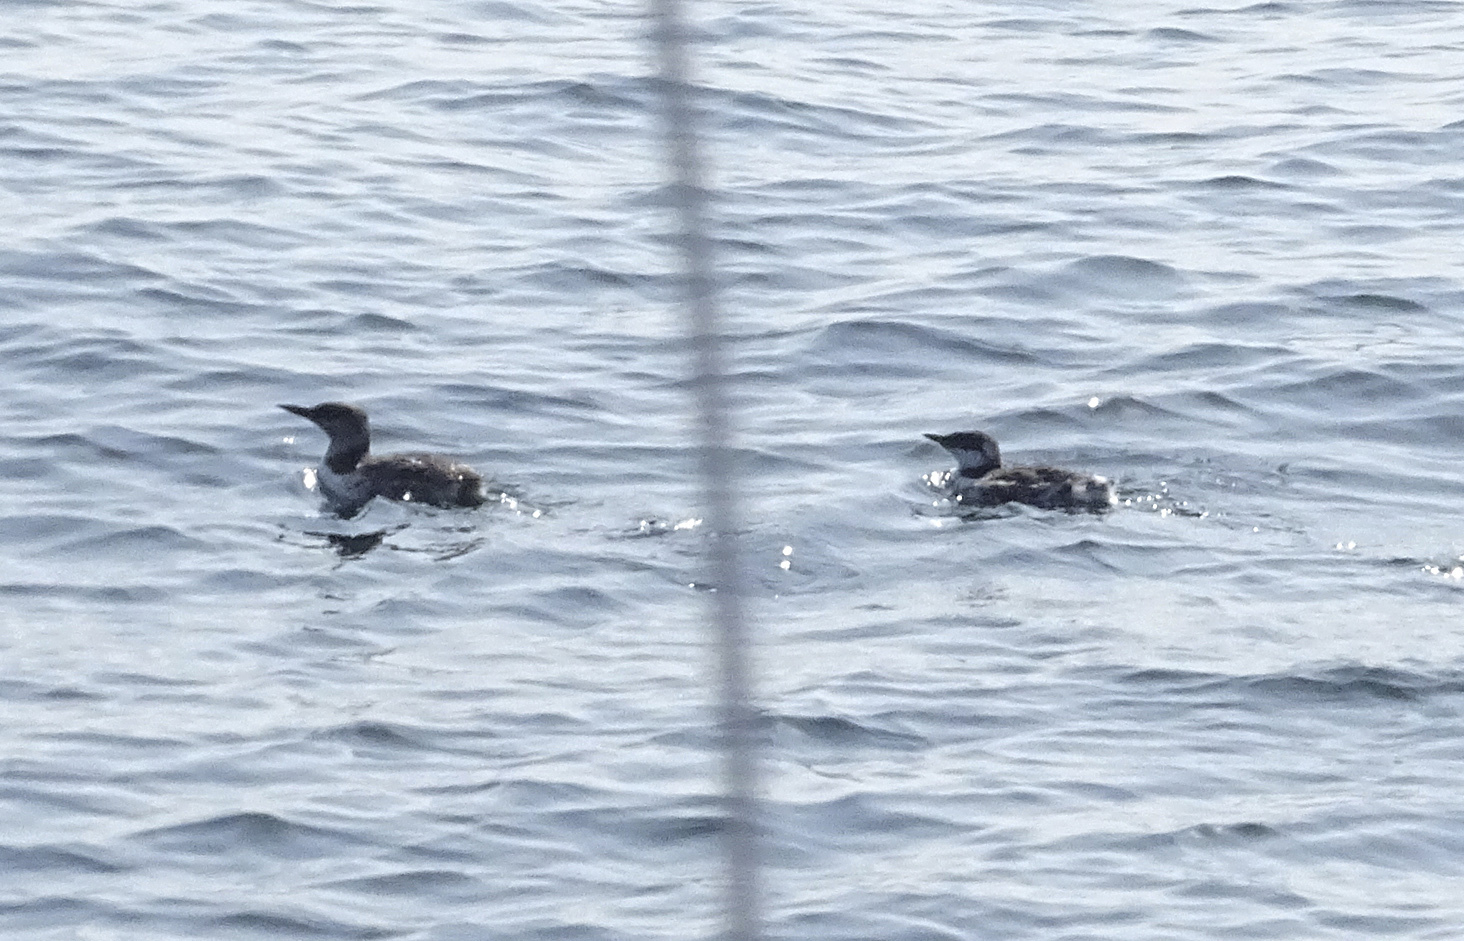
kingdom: Animalia
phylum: Chordata
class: Aves
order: Charadriiformes
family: Alcidae
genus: Uria
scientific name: Uria aalge
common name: Common murre
